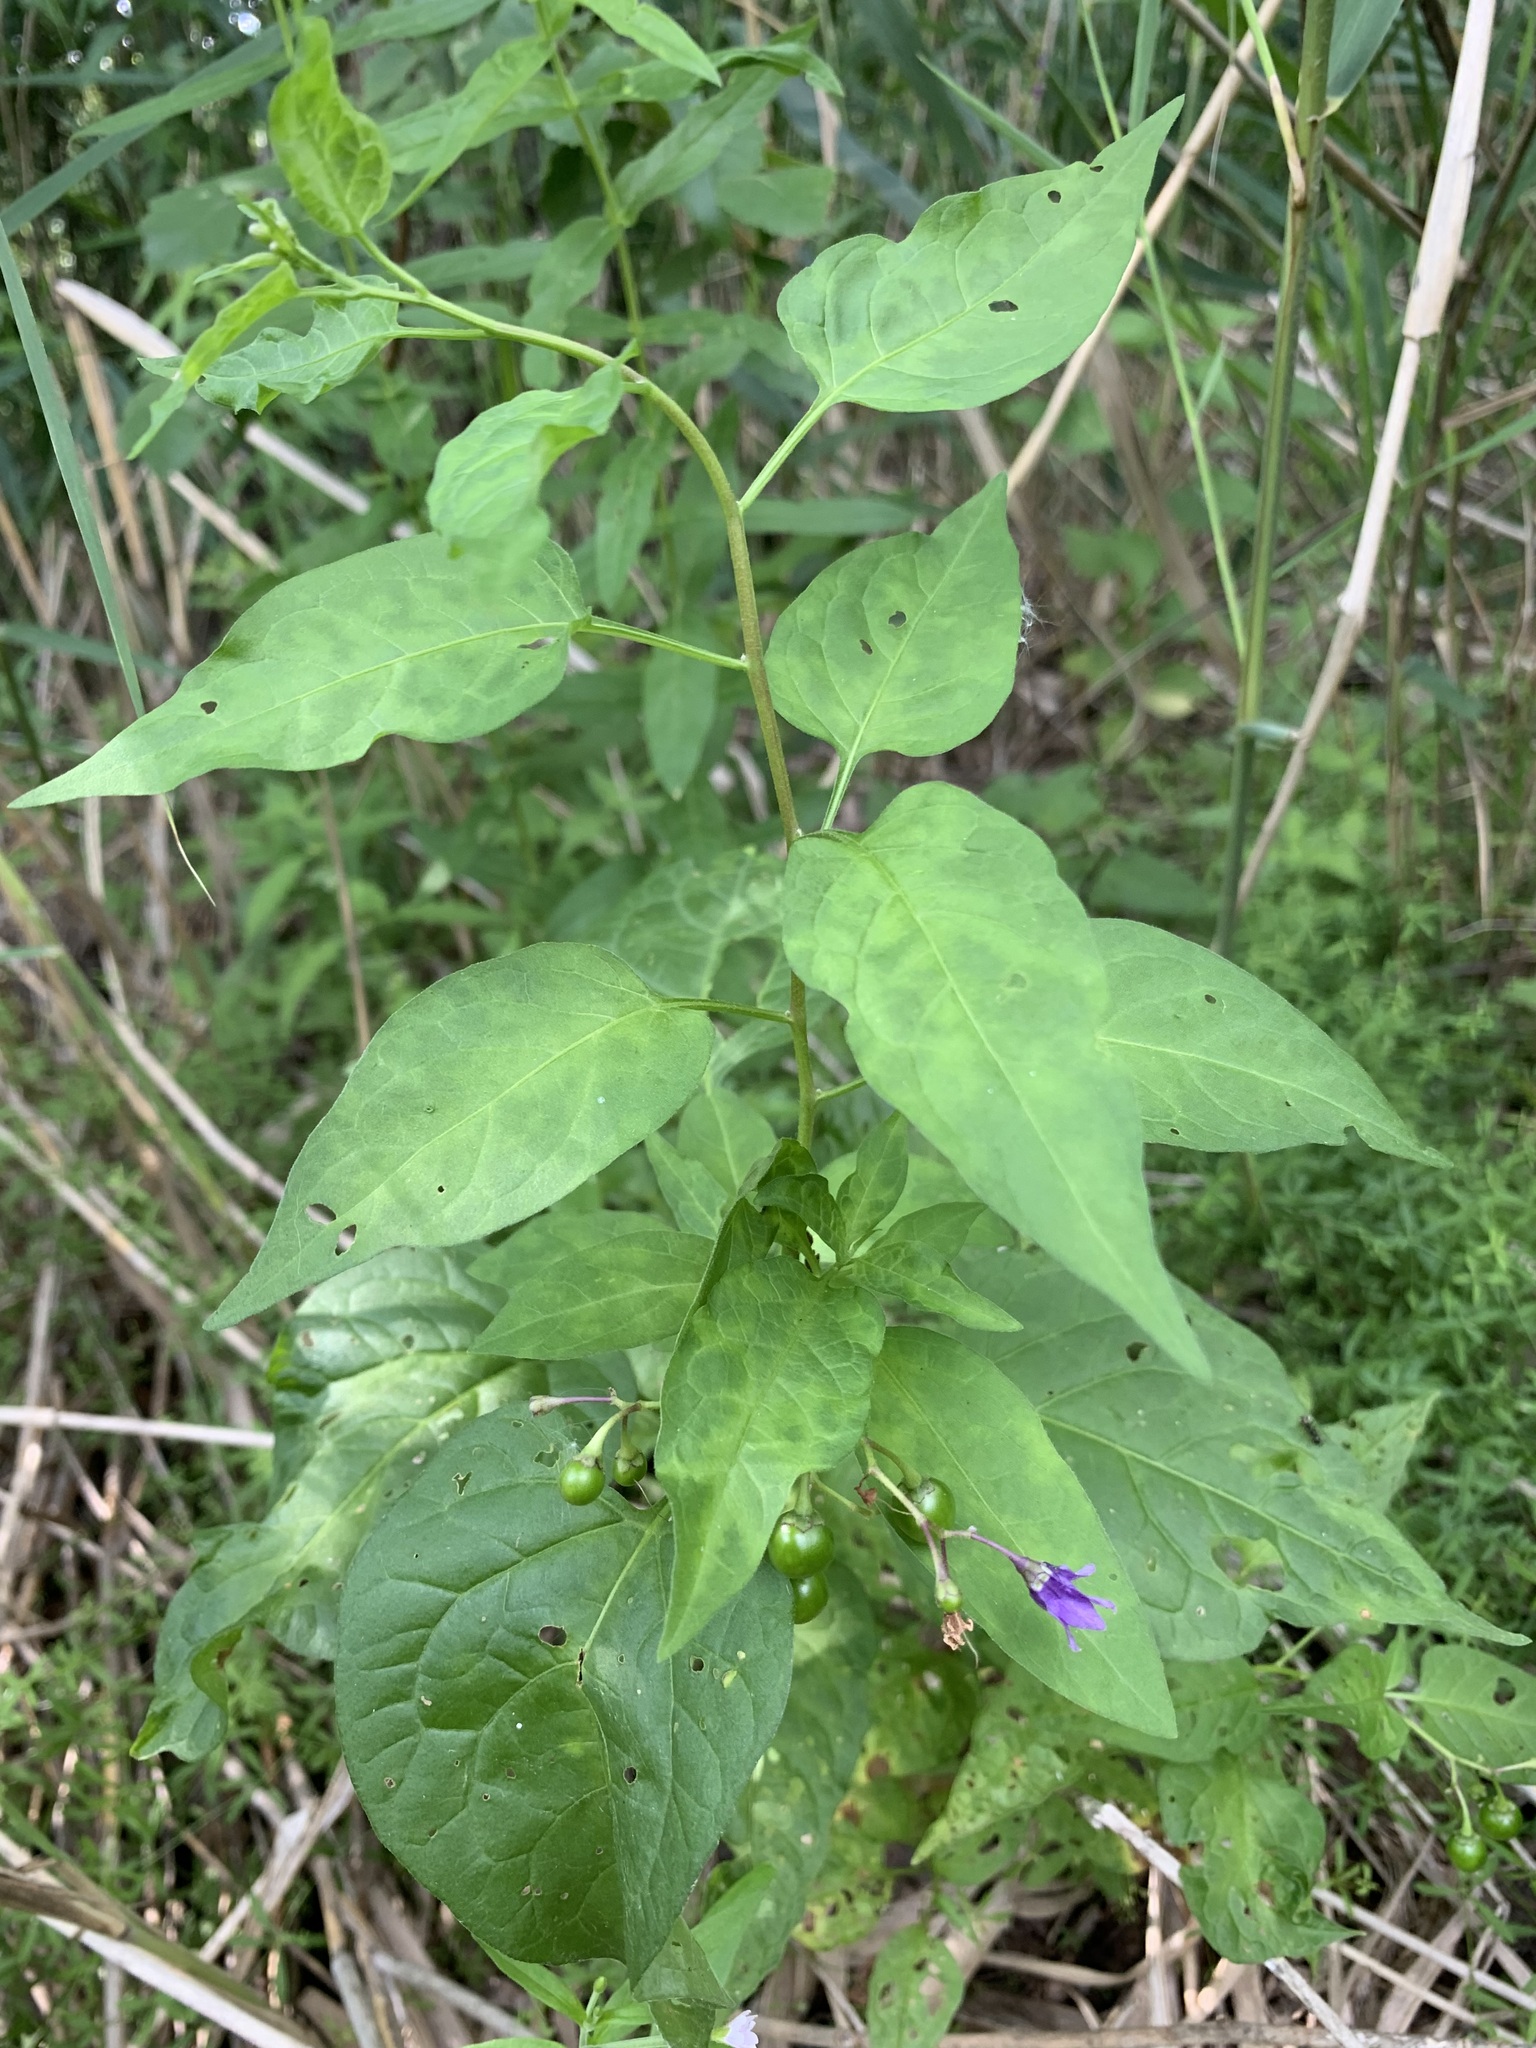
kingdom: Plantae
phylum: Tracheophyta
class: Magnoliopsida
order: Solanales
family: Solanaceae
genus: Solanum
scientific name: Solanum dulcamara
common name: Climbing nightshade
